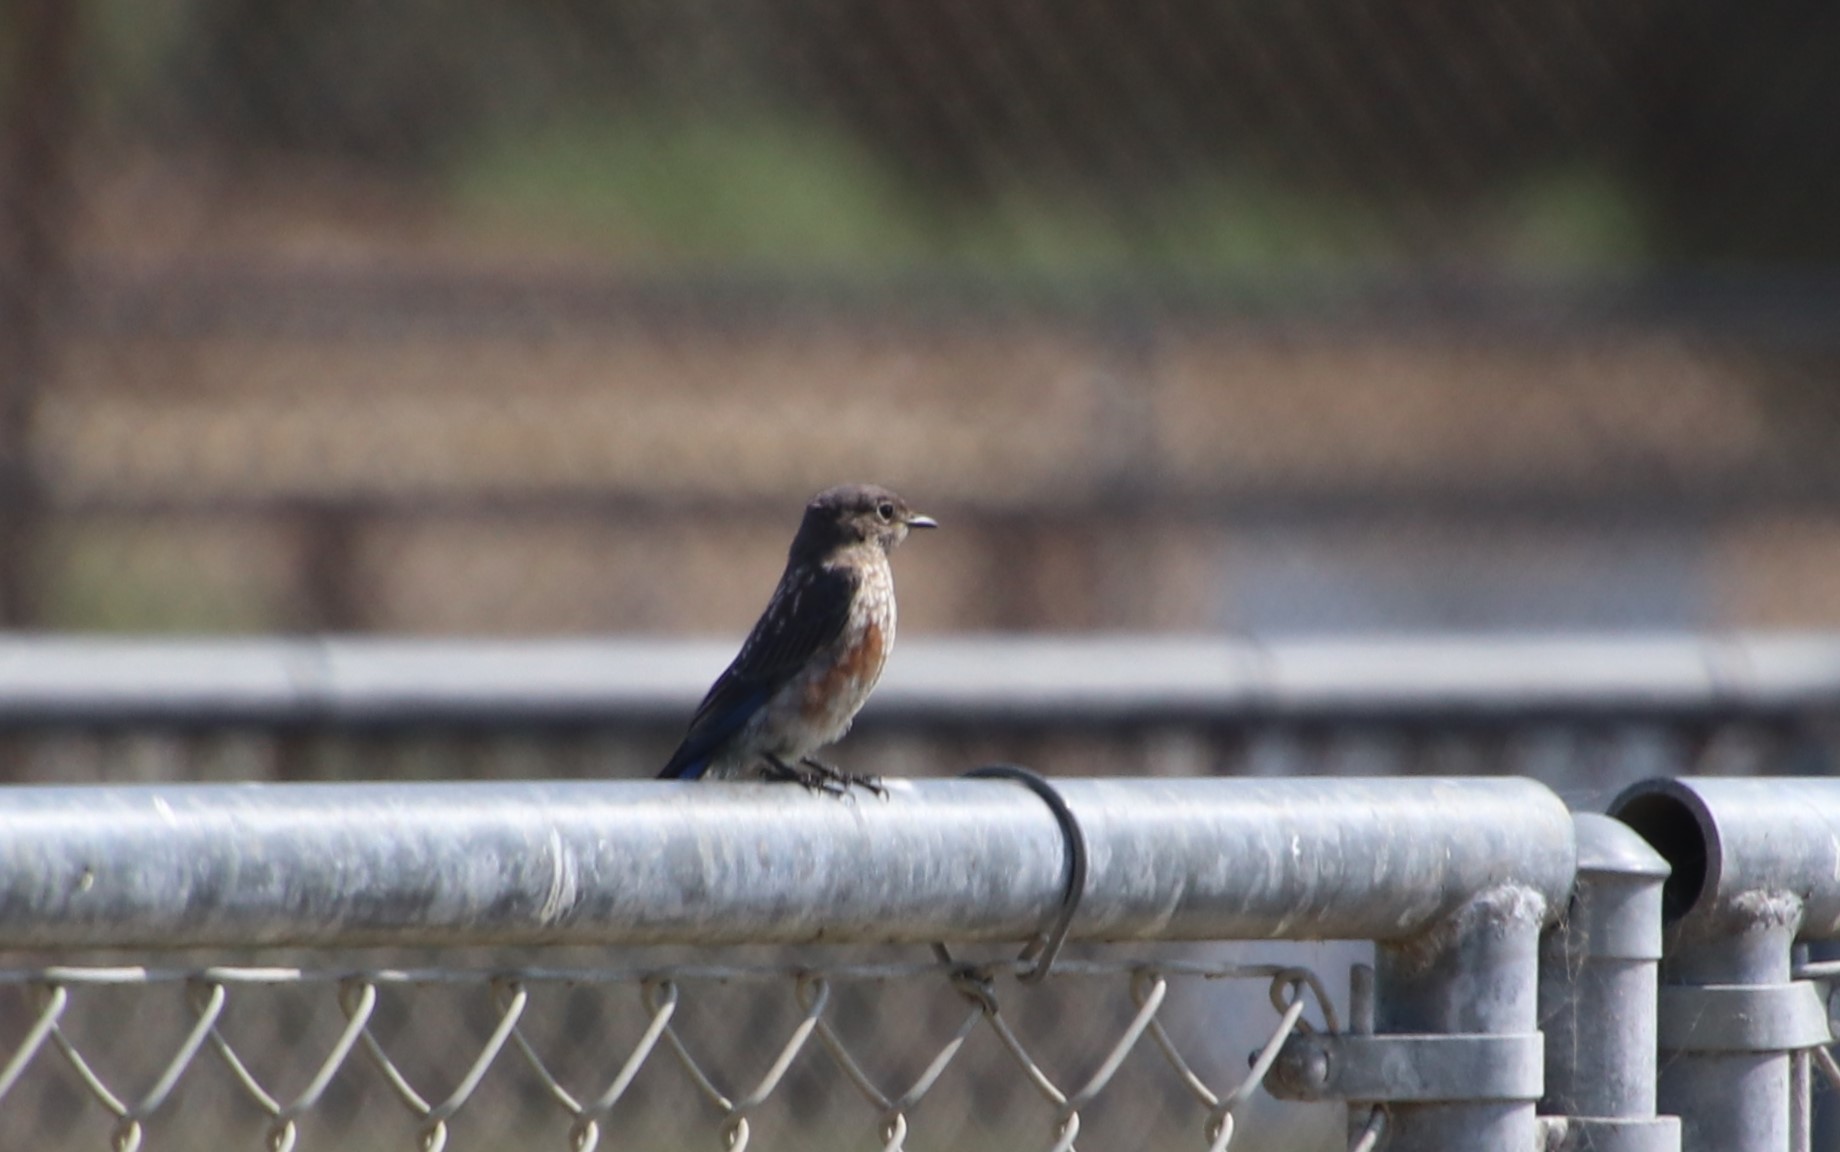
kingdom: Animalia
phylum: Chordata
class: Aves
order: Passeriformes
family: Turdidae
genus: Sialia
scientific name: Sialia mexicana
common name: Western bluebird
